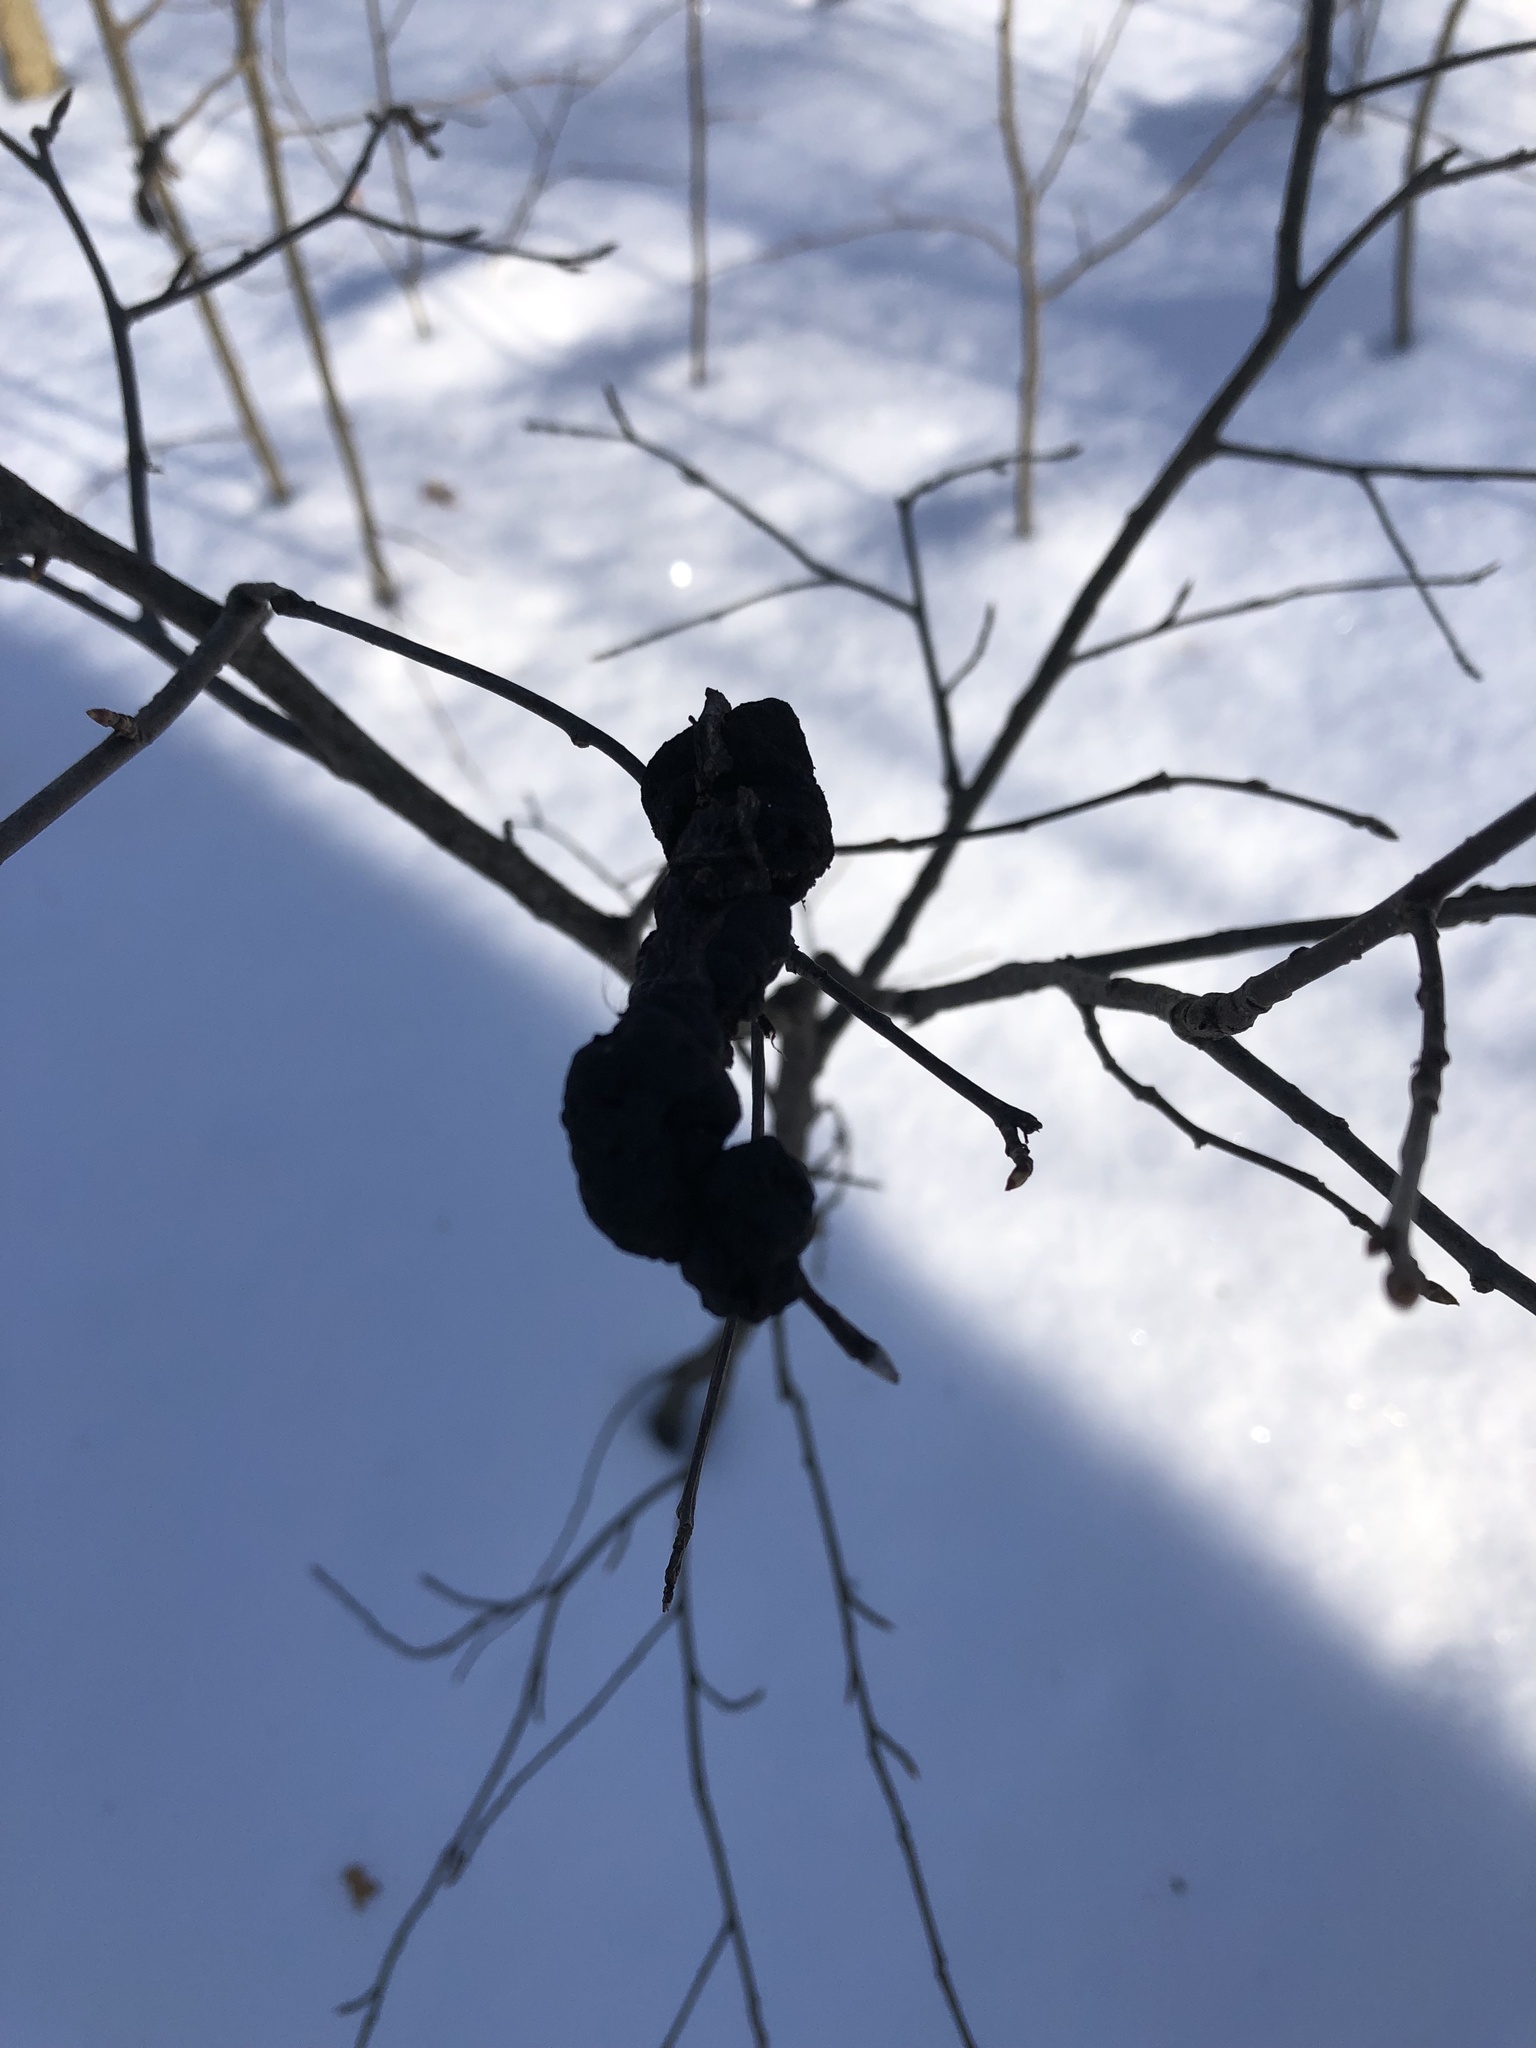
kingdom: Fungi
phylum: Ascomycota
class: Dothideomycetes
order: Venturiales
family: Venturiaceae
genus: Apiosporina
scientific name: Apiosporina morbosa
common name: Black knot
